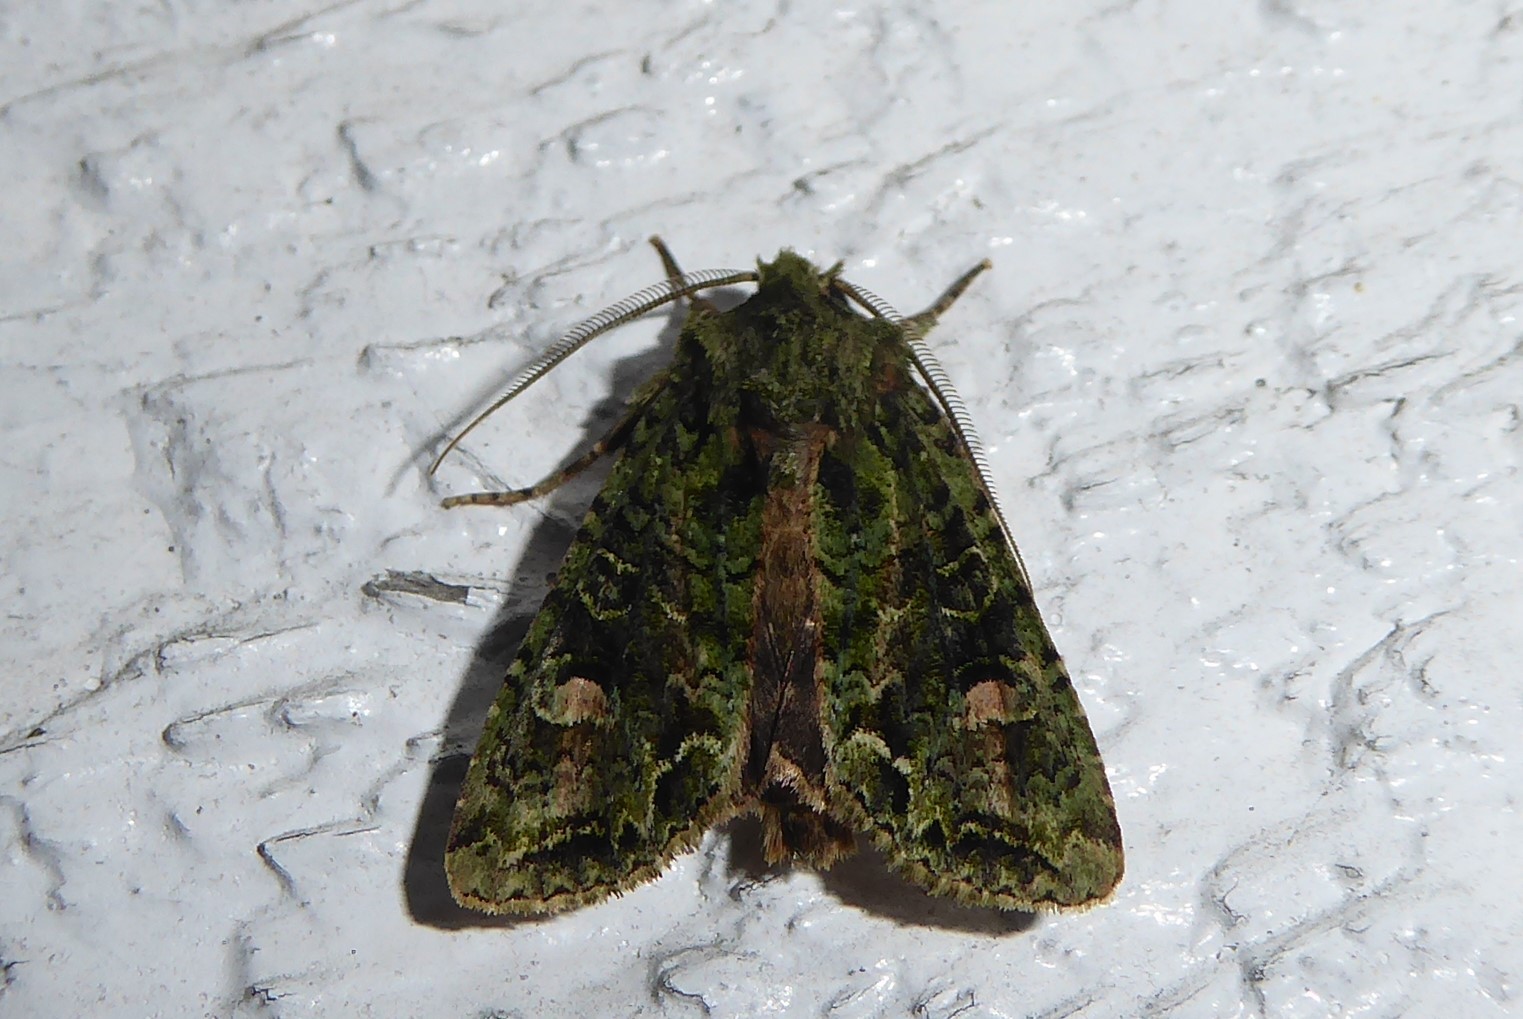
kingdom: Animalia
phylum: Arthropoda
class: Insecta
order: Lepidoptera
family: Noctuidae
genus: Ichneutica
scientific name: Ichneutica
